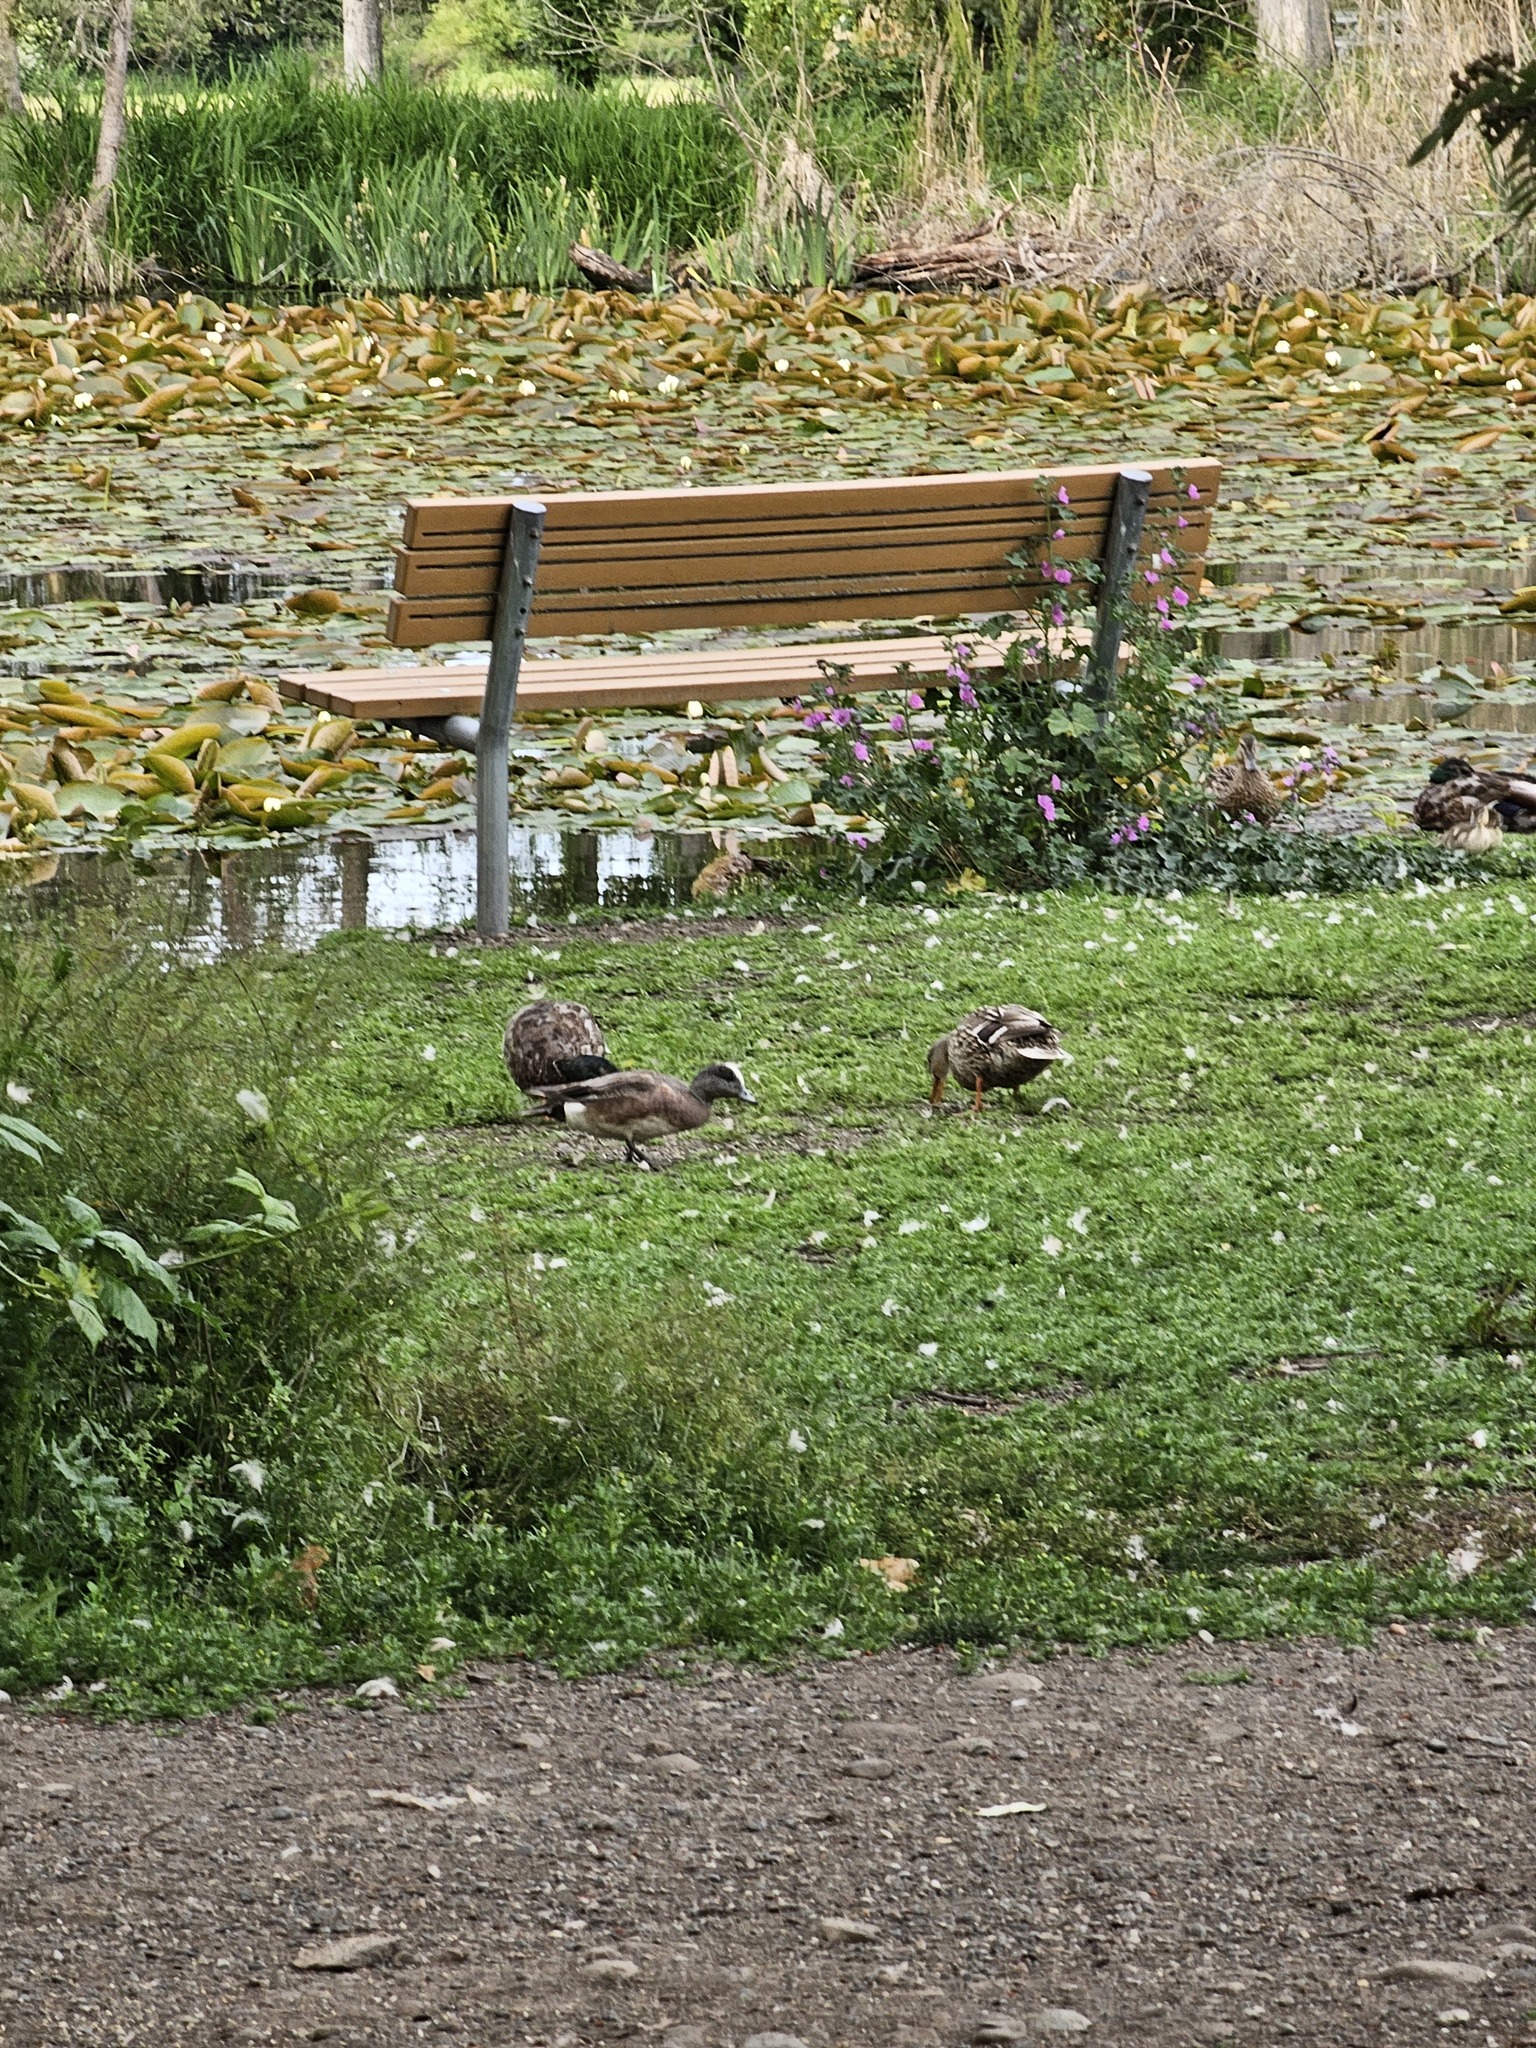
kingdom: Animalia
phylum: Chordata
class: Aves
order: Anseriformes
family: Anatidae
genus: Mareca
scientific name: Mareca americana
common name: American wigeon
